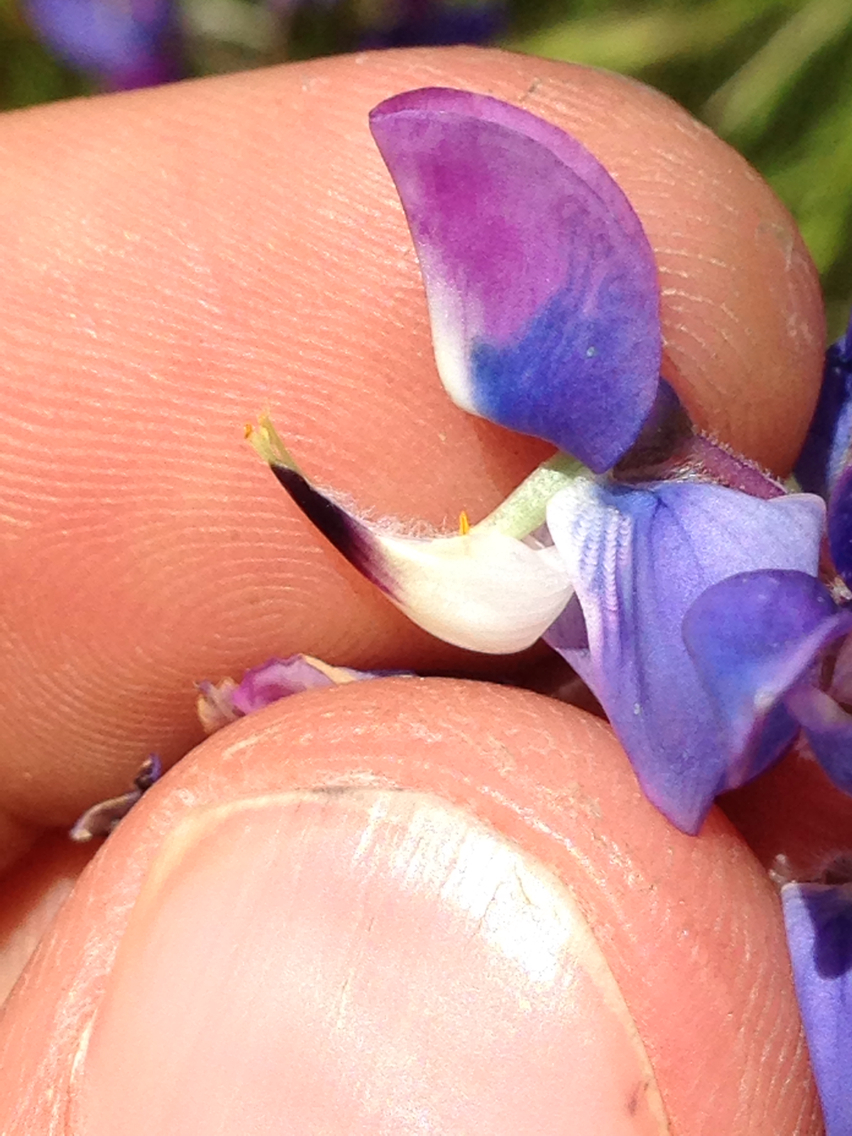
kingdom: Plantae
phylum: Tracheophyta
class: Magnoliopsida
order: Fabales
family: Fabaceae
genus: Lupinus
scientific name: Lupinus nanus
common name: Orean blue lupin
